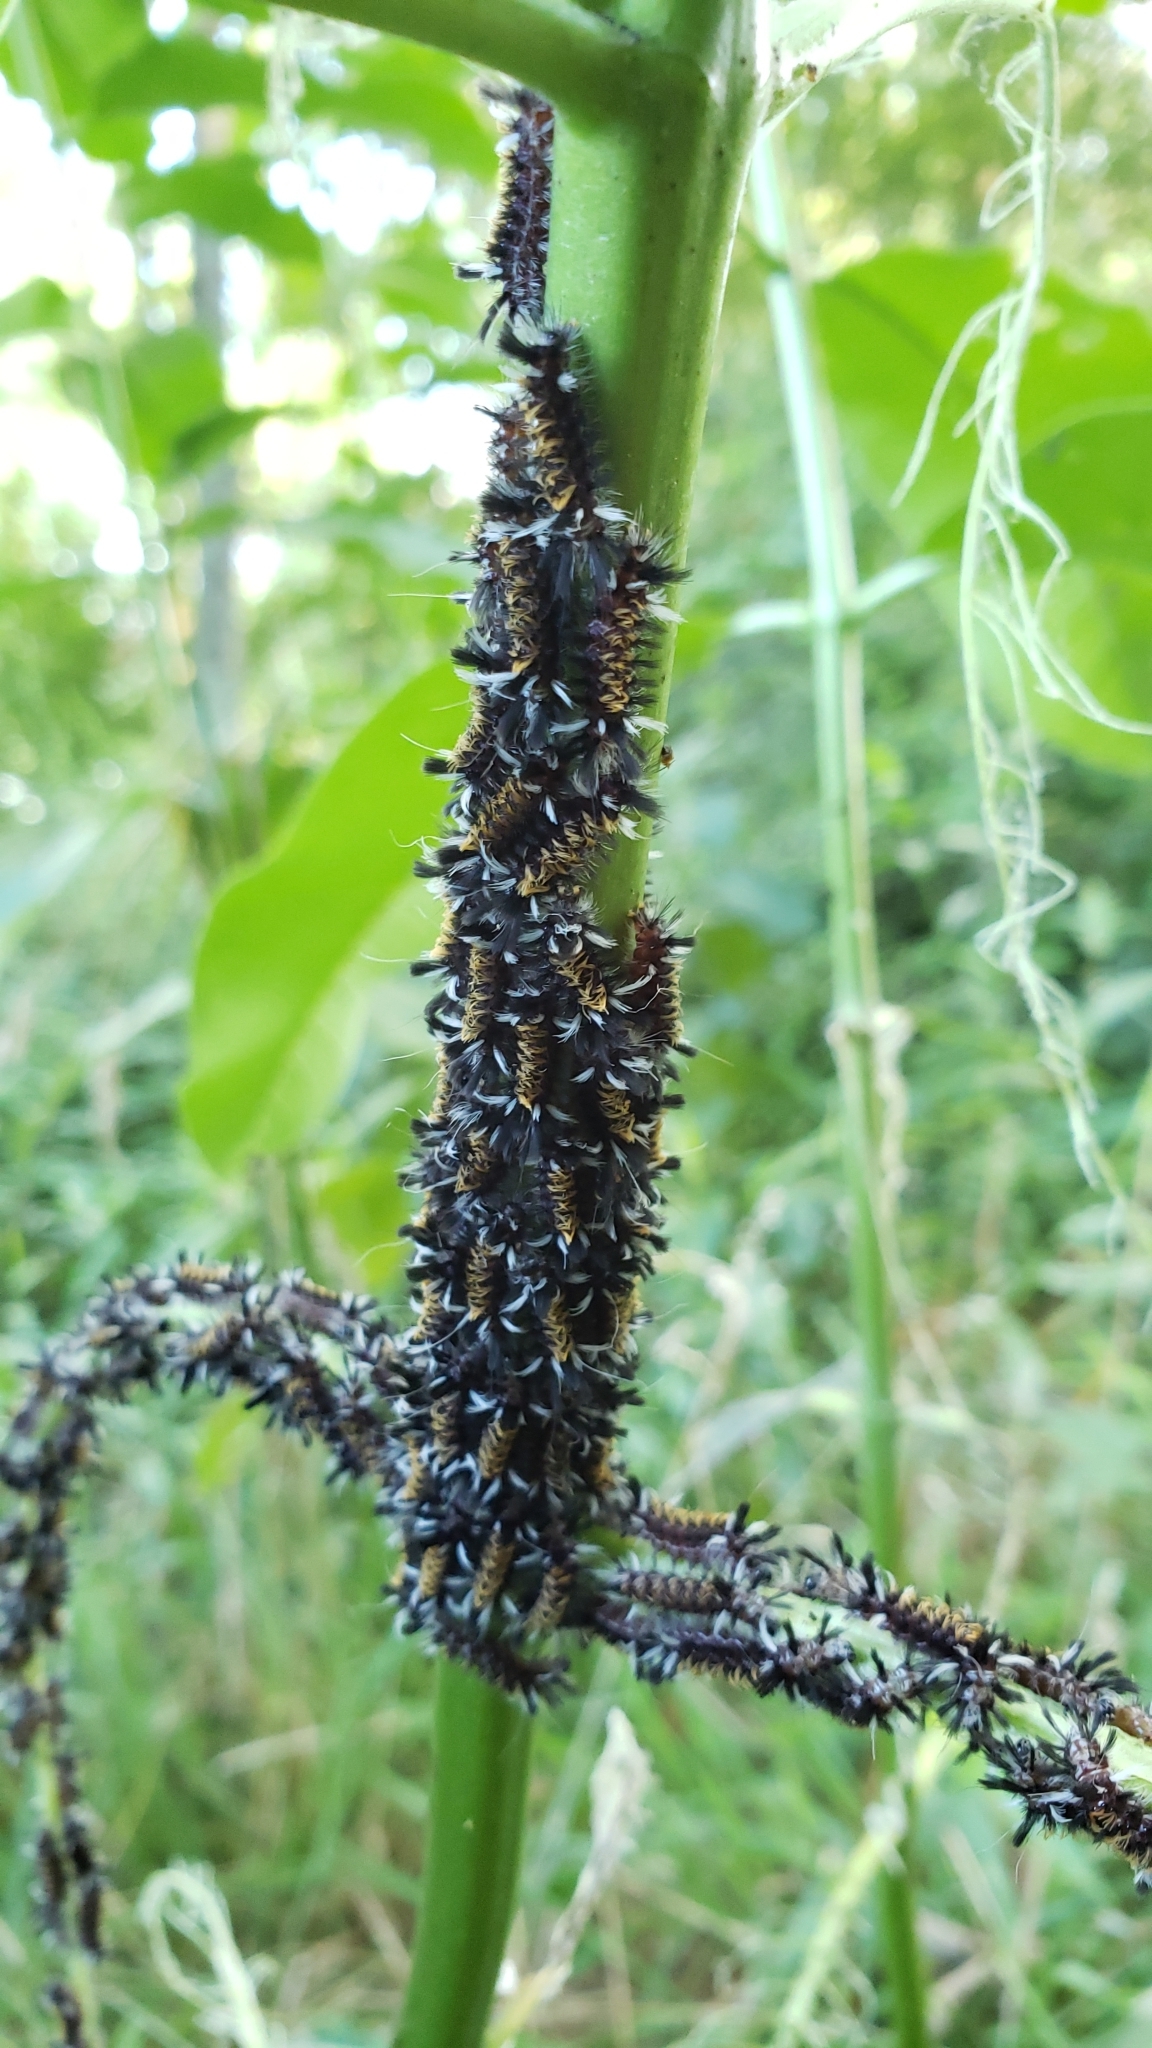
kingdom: Animalia
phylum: Arthropoda
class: Insecta
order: Lepidoptera
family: Erebidae
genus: Euchaetes
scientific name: Euchaetes egle
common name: Milkweed tussock moth
